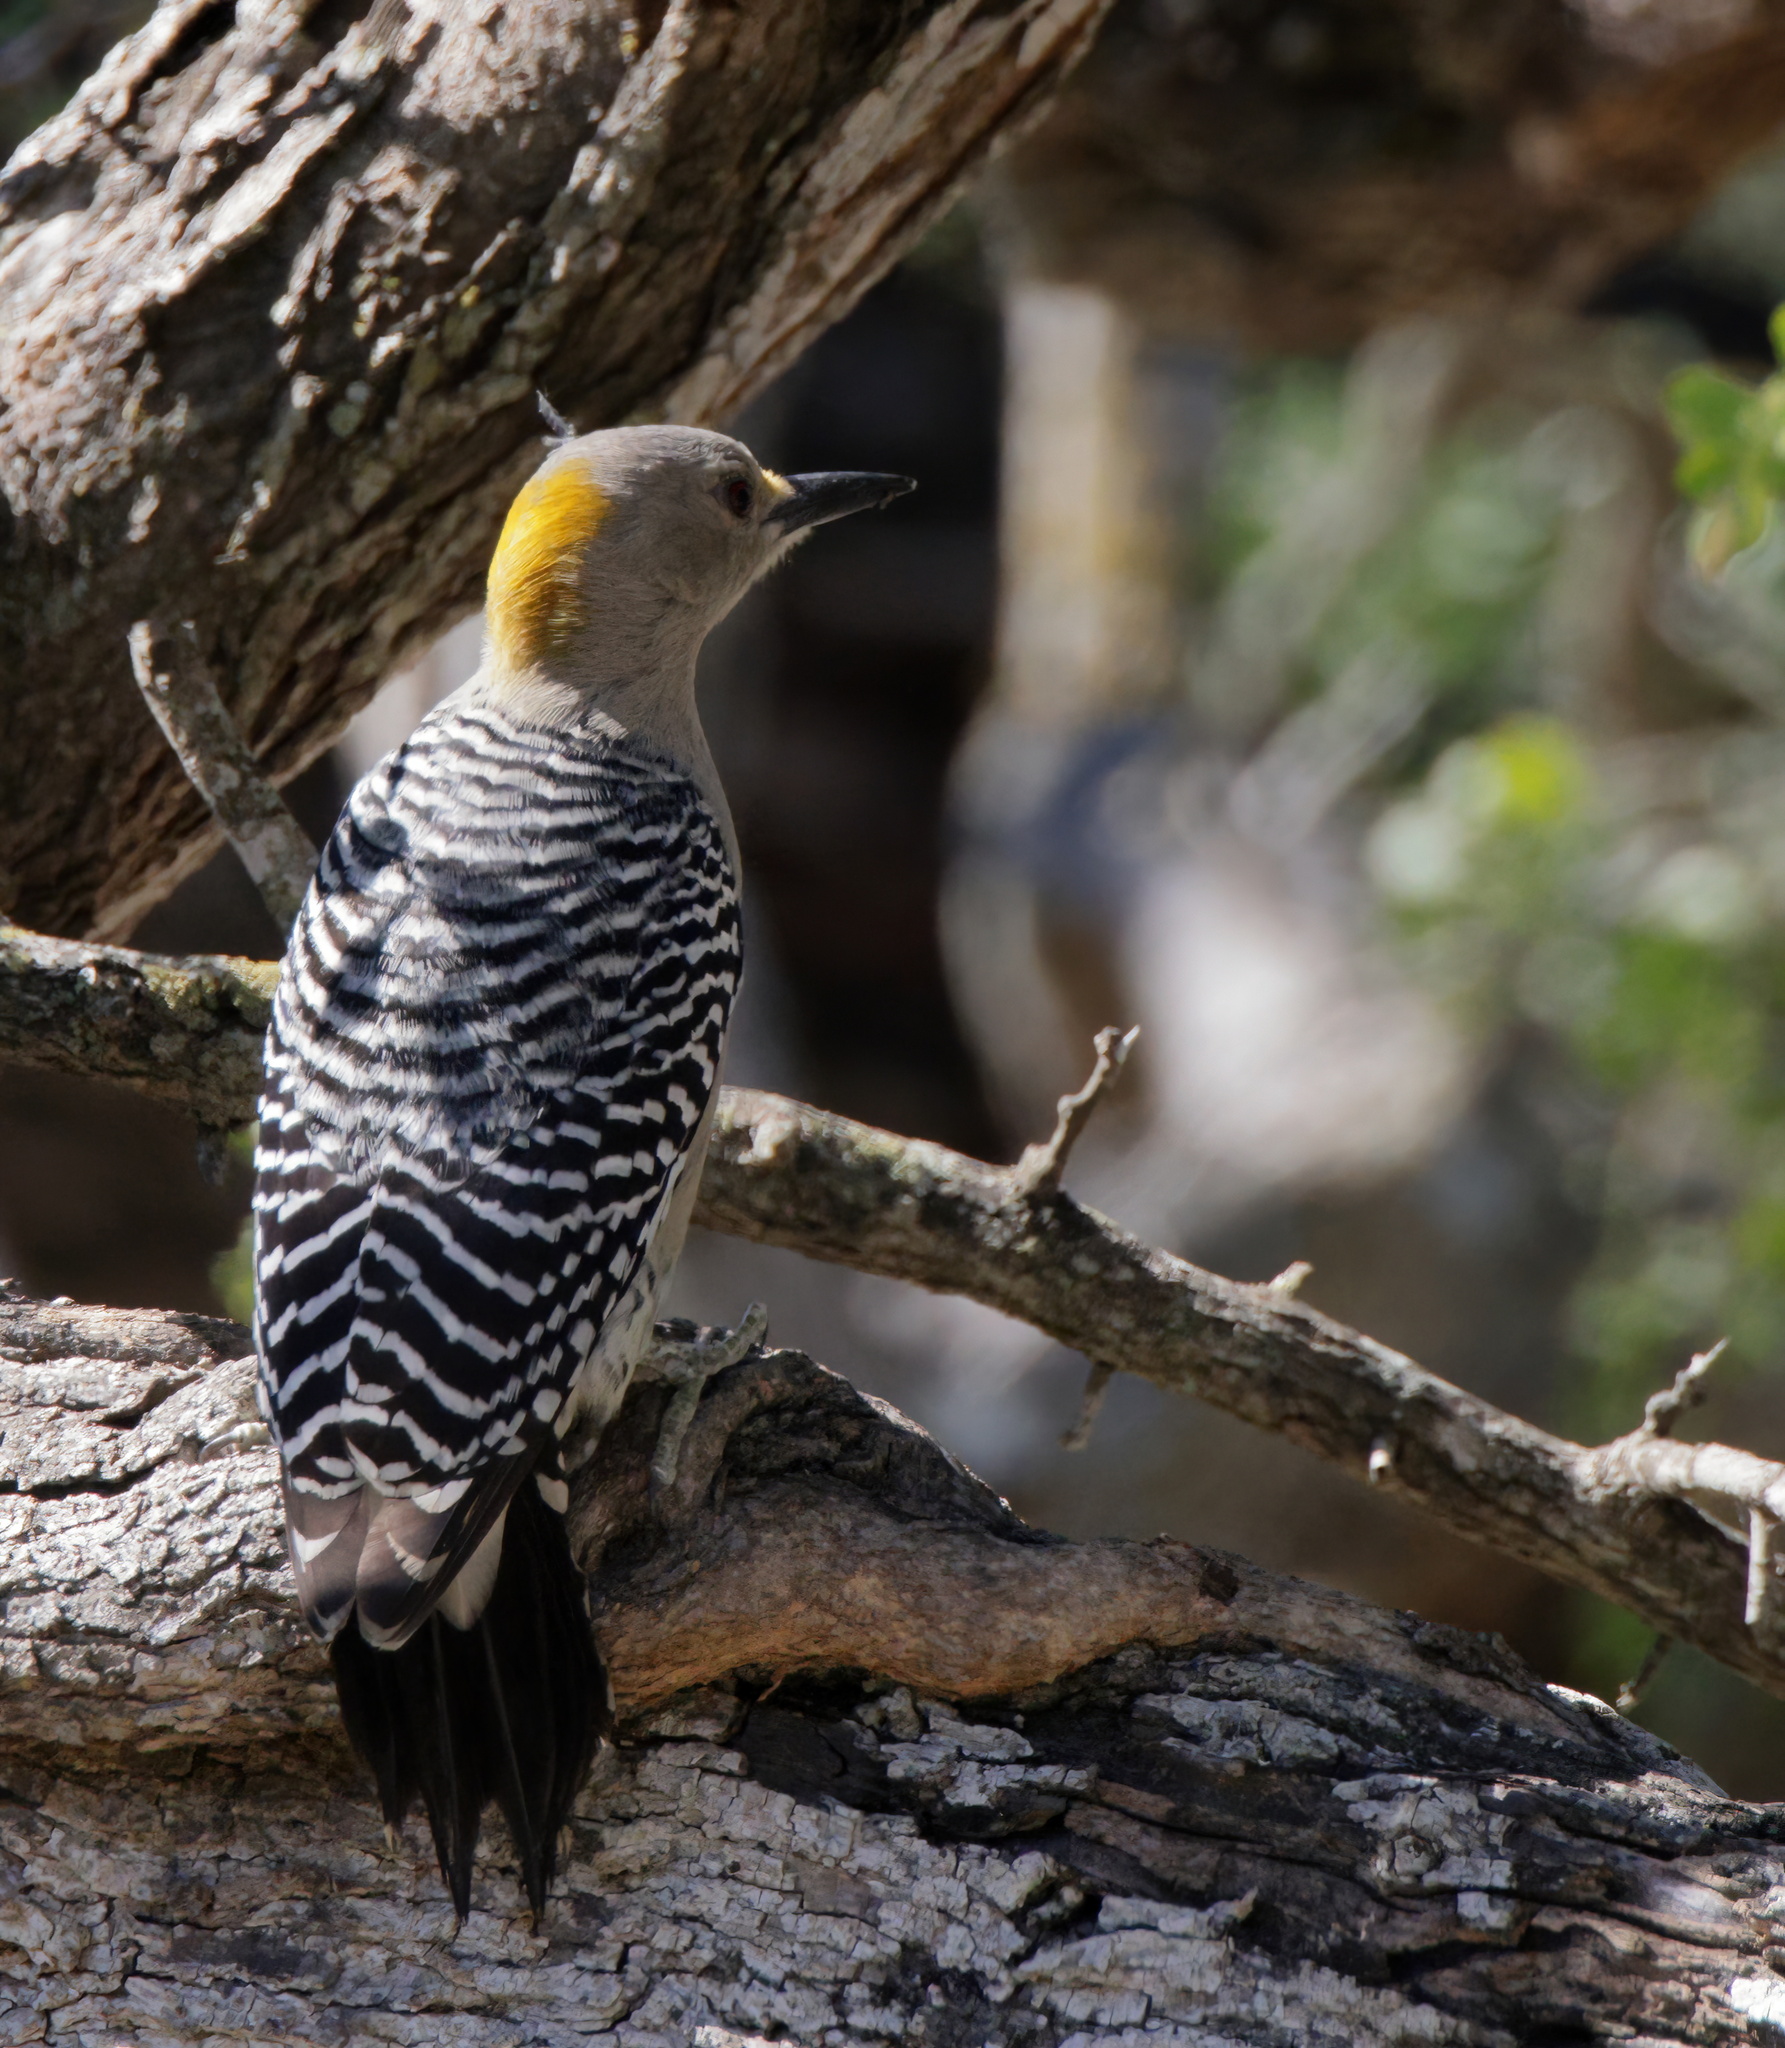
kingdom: Animalia
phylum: Chordata
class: Aves
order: Piciformes
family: Picidae
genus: Melanerpes
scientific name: Melanerpes aurifrons
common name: Golden-fronted woodpecker
